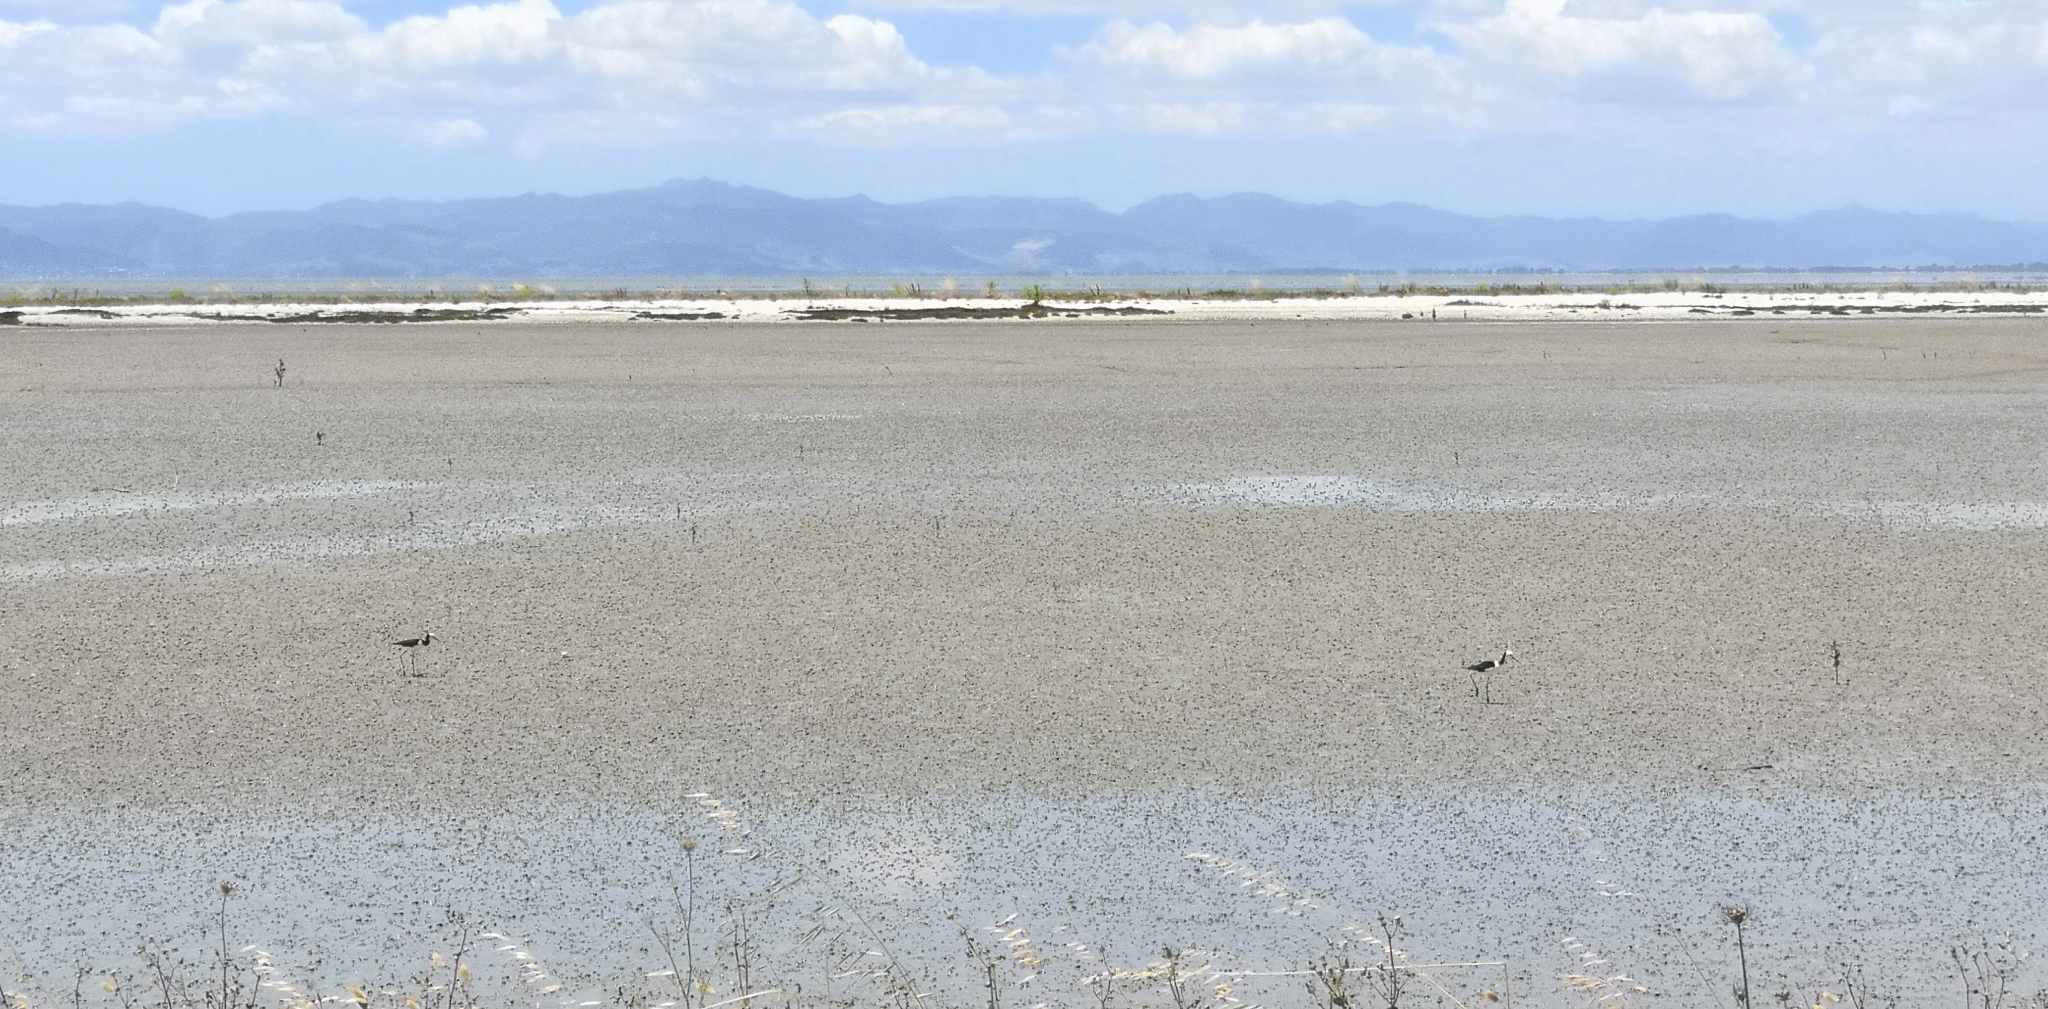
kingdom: Animalia
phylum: Chordata
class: Aves
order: Charadriiformes
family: Recurvirostridae
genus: Himantopus
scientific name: Himantopus leucocephalus
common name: White-headed stilt
